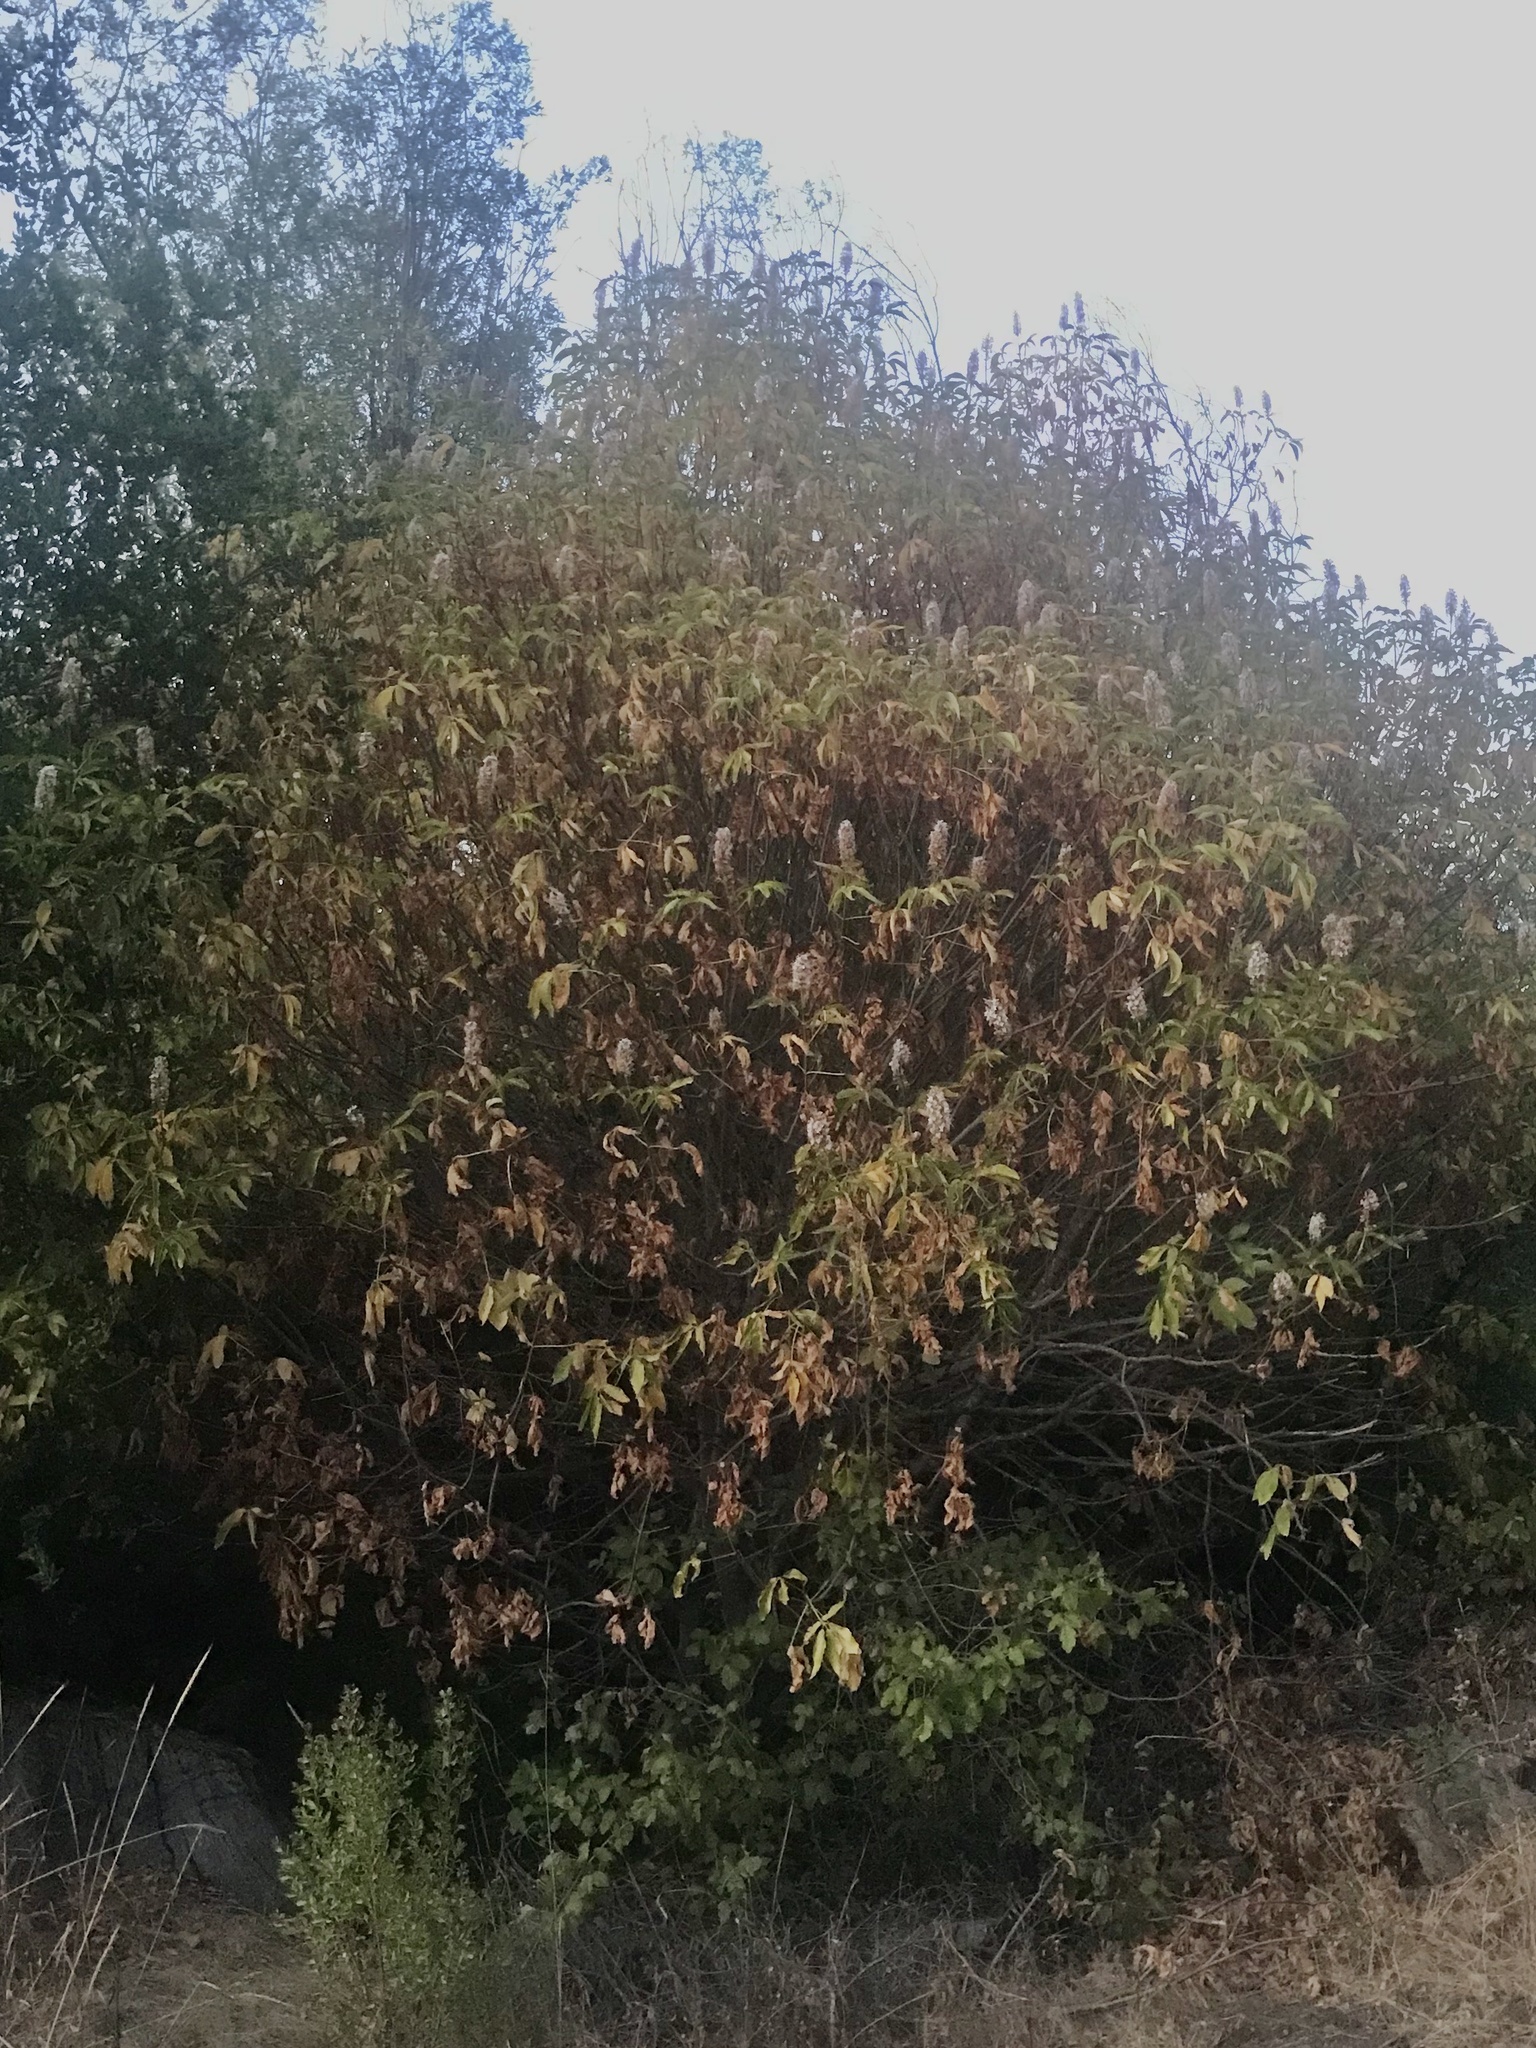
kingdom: Plantae
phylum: Tracheophyta
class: Magnoliopsida
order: Sapindales
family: Sapindaceae
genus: Aesculus
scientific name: Aesculus californica
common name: California buckeye
